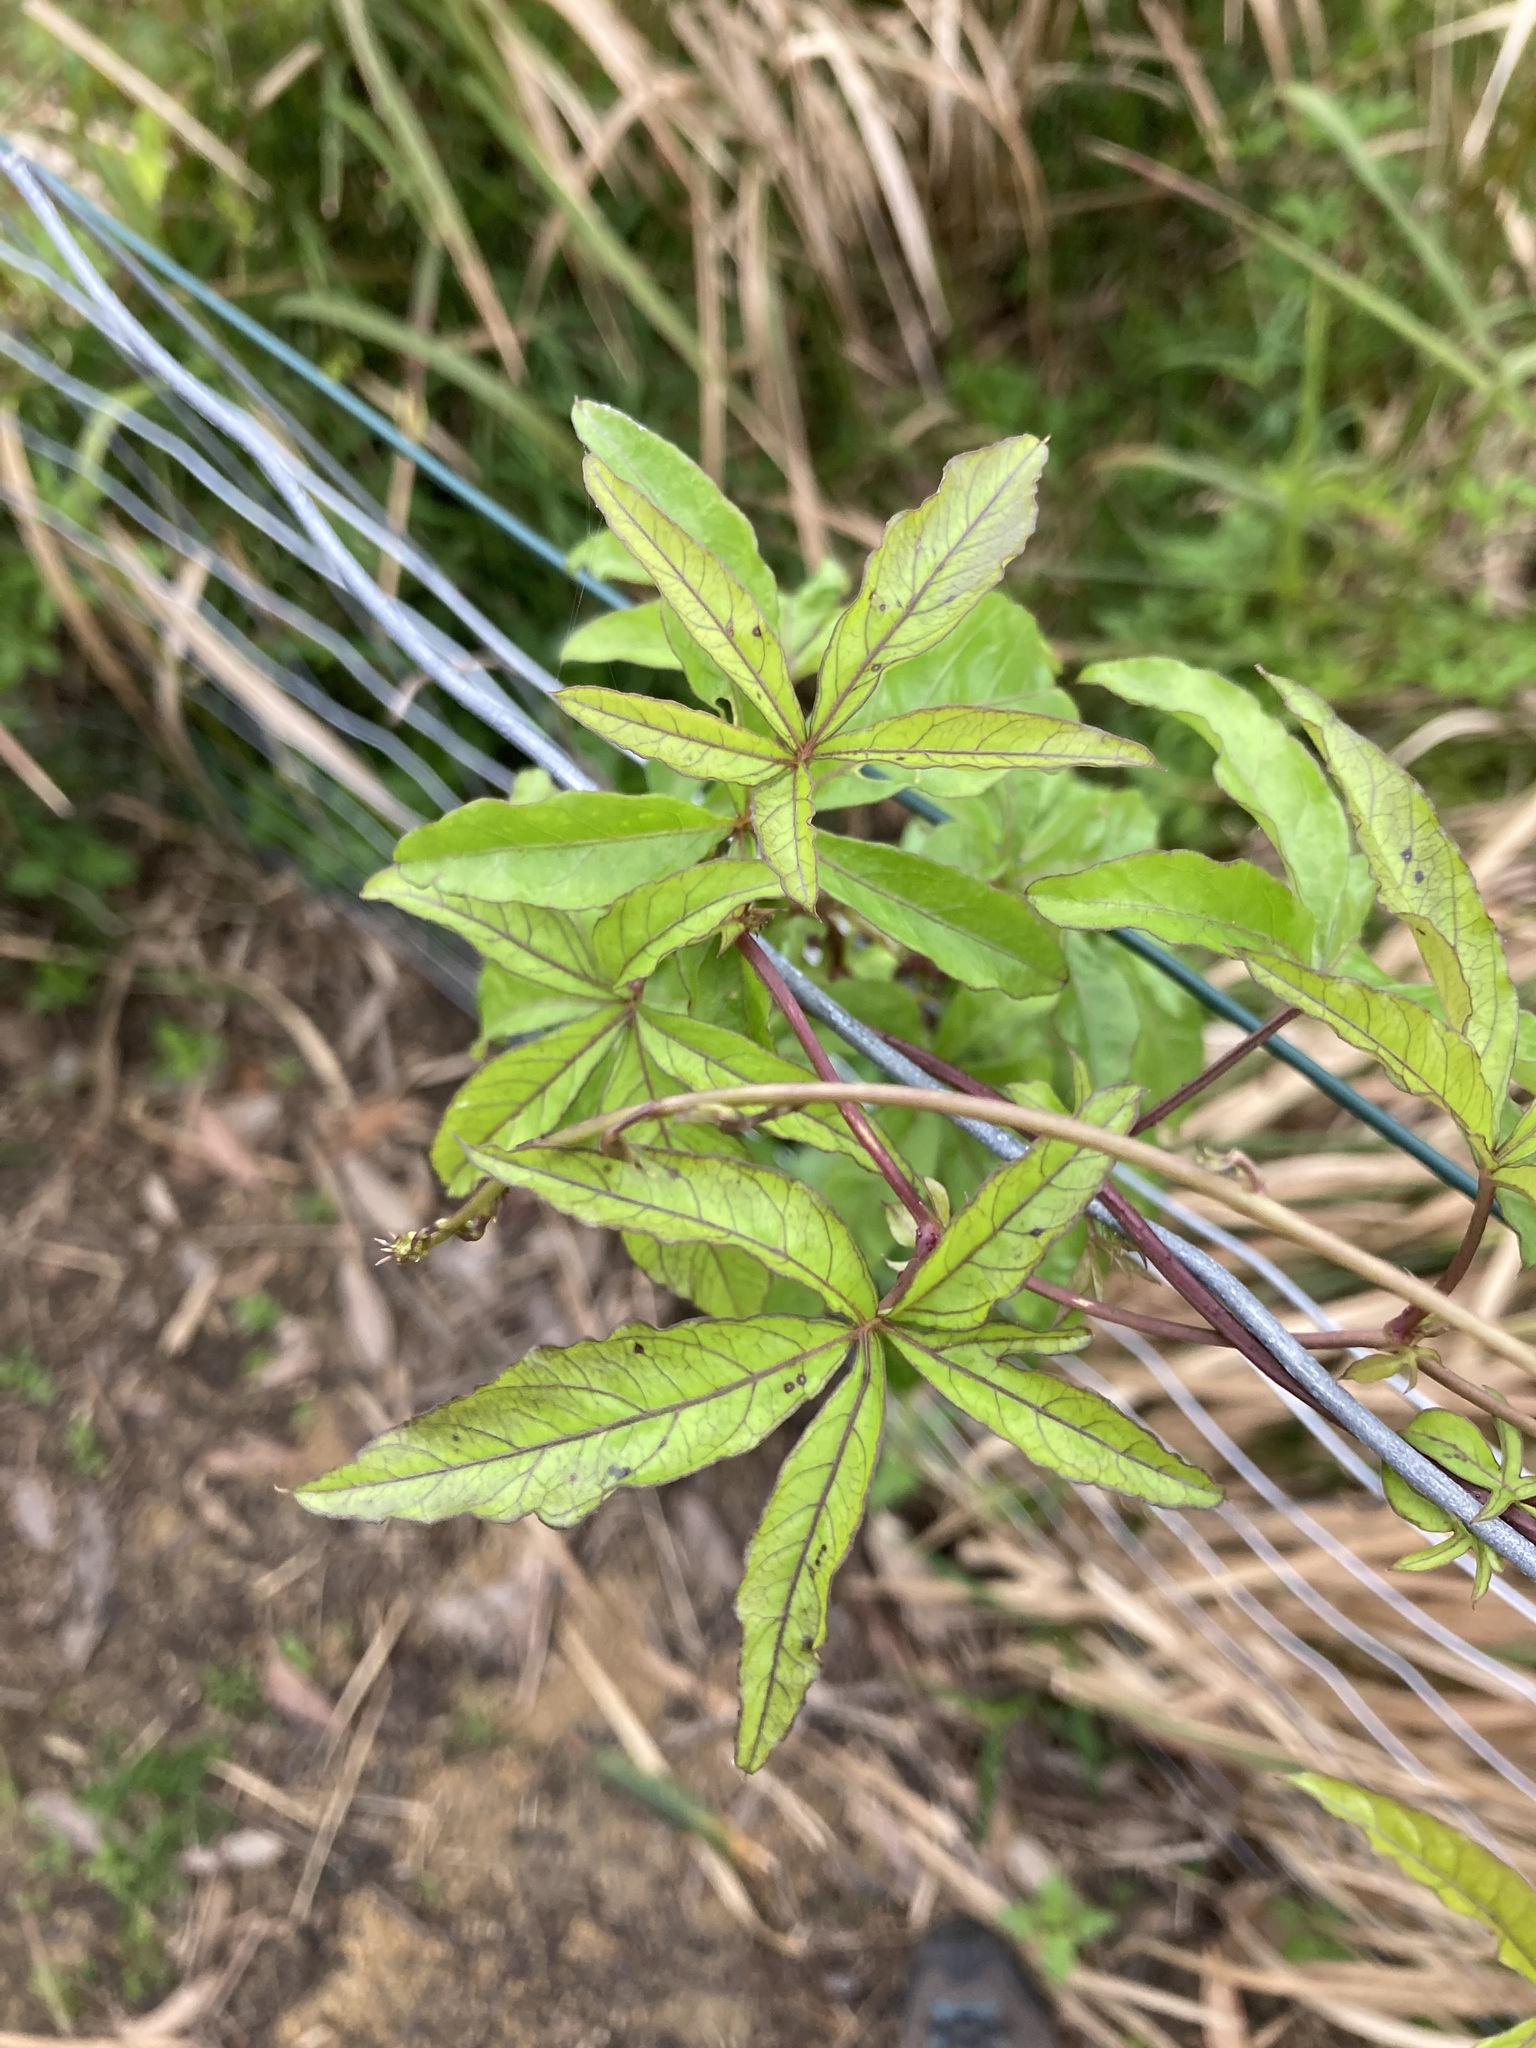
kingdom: Plantae
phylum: Tracheophyta
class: Magnoliopsida
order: Solanales
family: Convolvulaceae
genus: Ipomoea
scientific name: Ipomoea cairica
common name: Mile a minute vine
